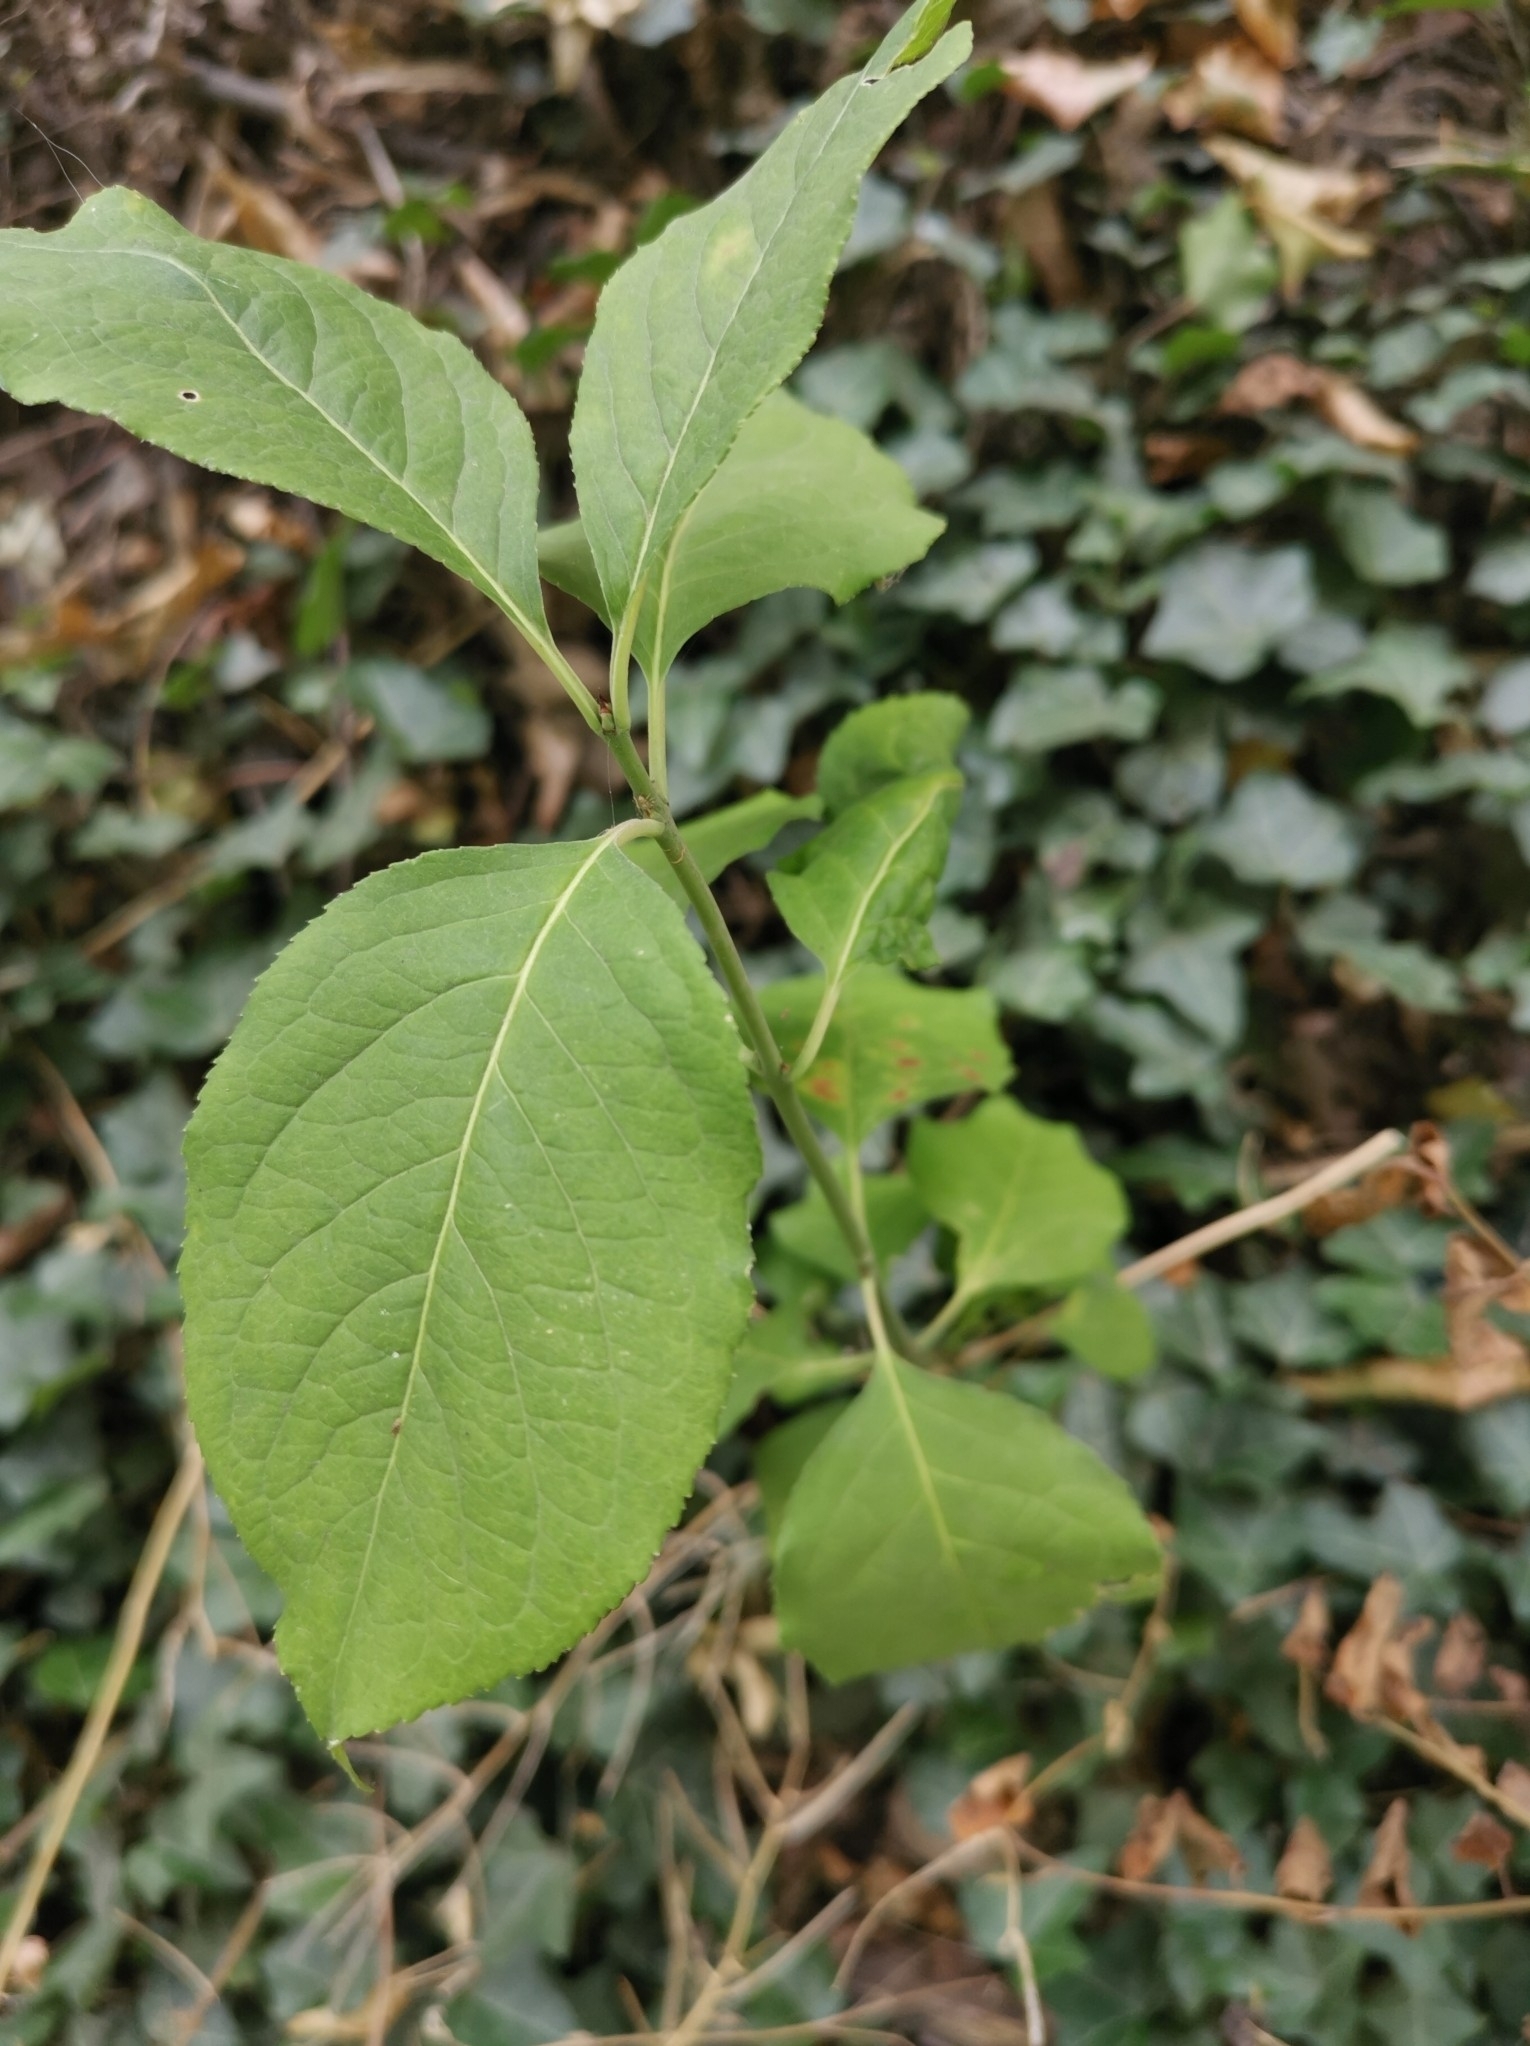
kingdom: Plantae
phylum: Tracheophyta
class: Magnoliopsida
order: Celastrales
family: Celastraceae
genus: Euonymus
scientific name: Euonymus europaeus
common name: Spindle
